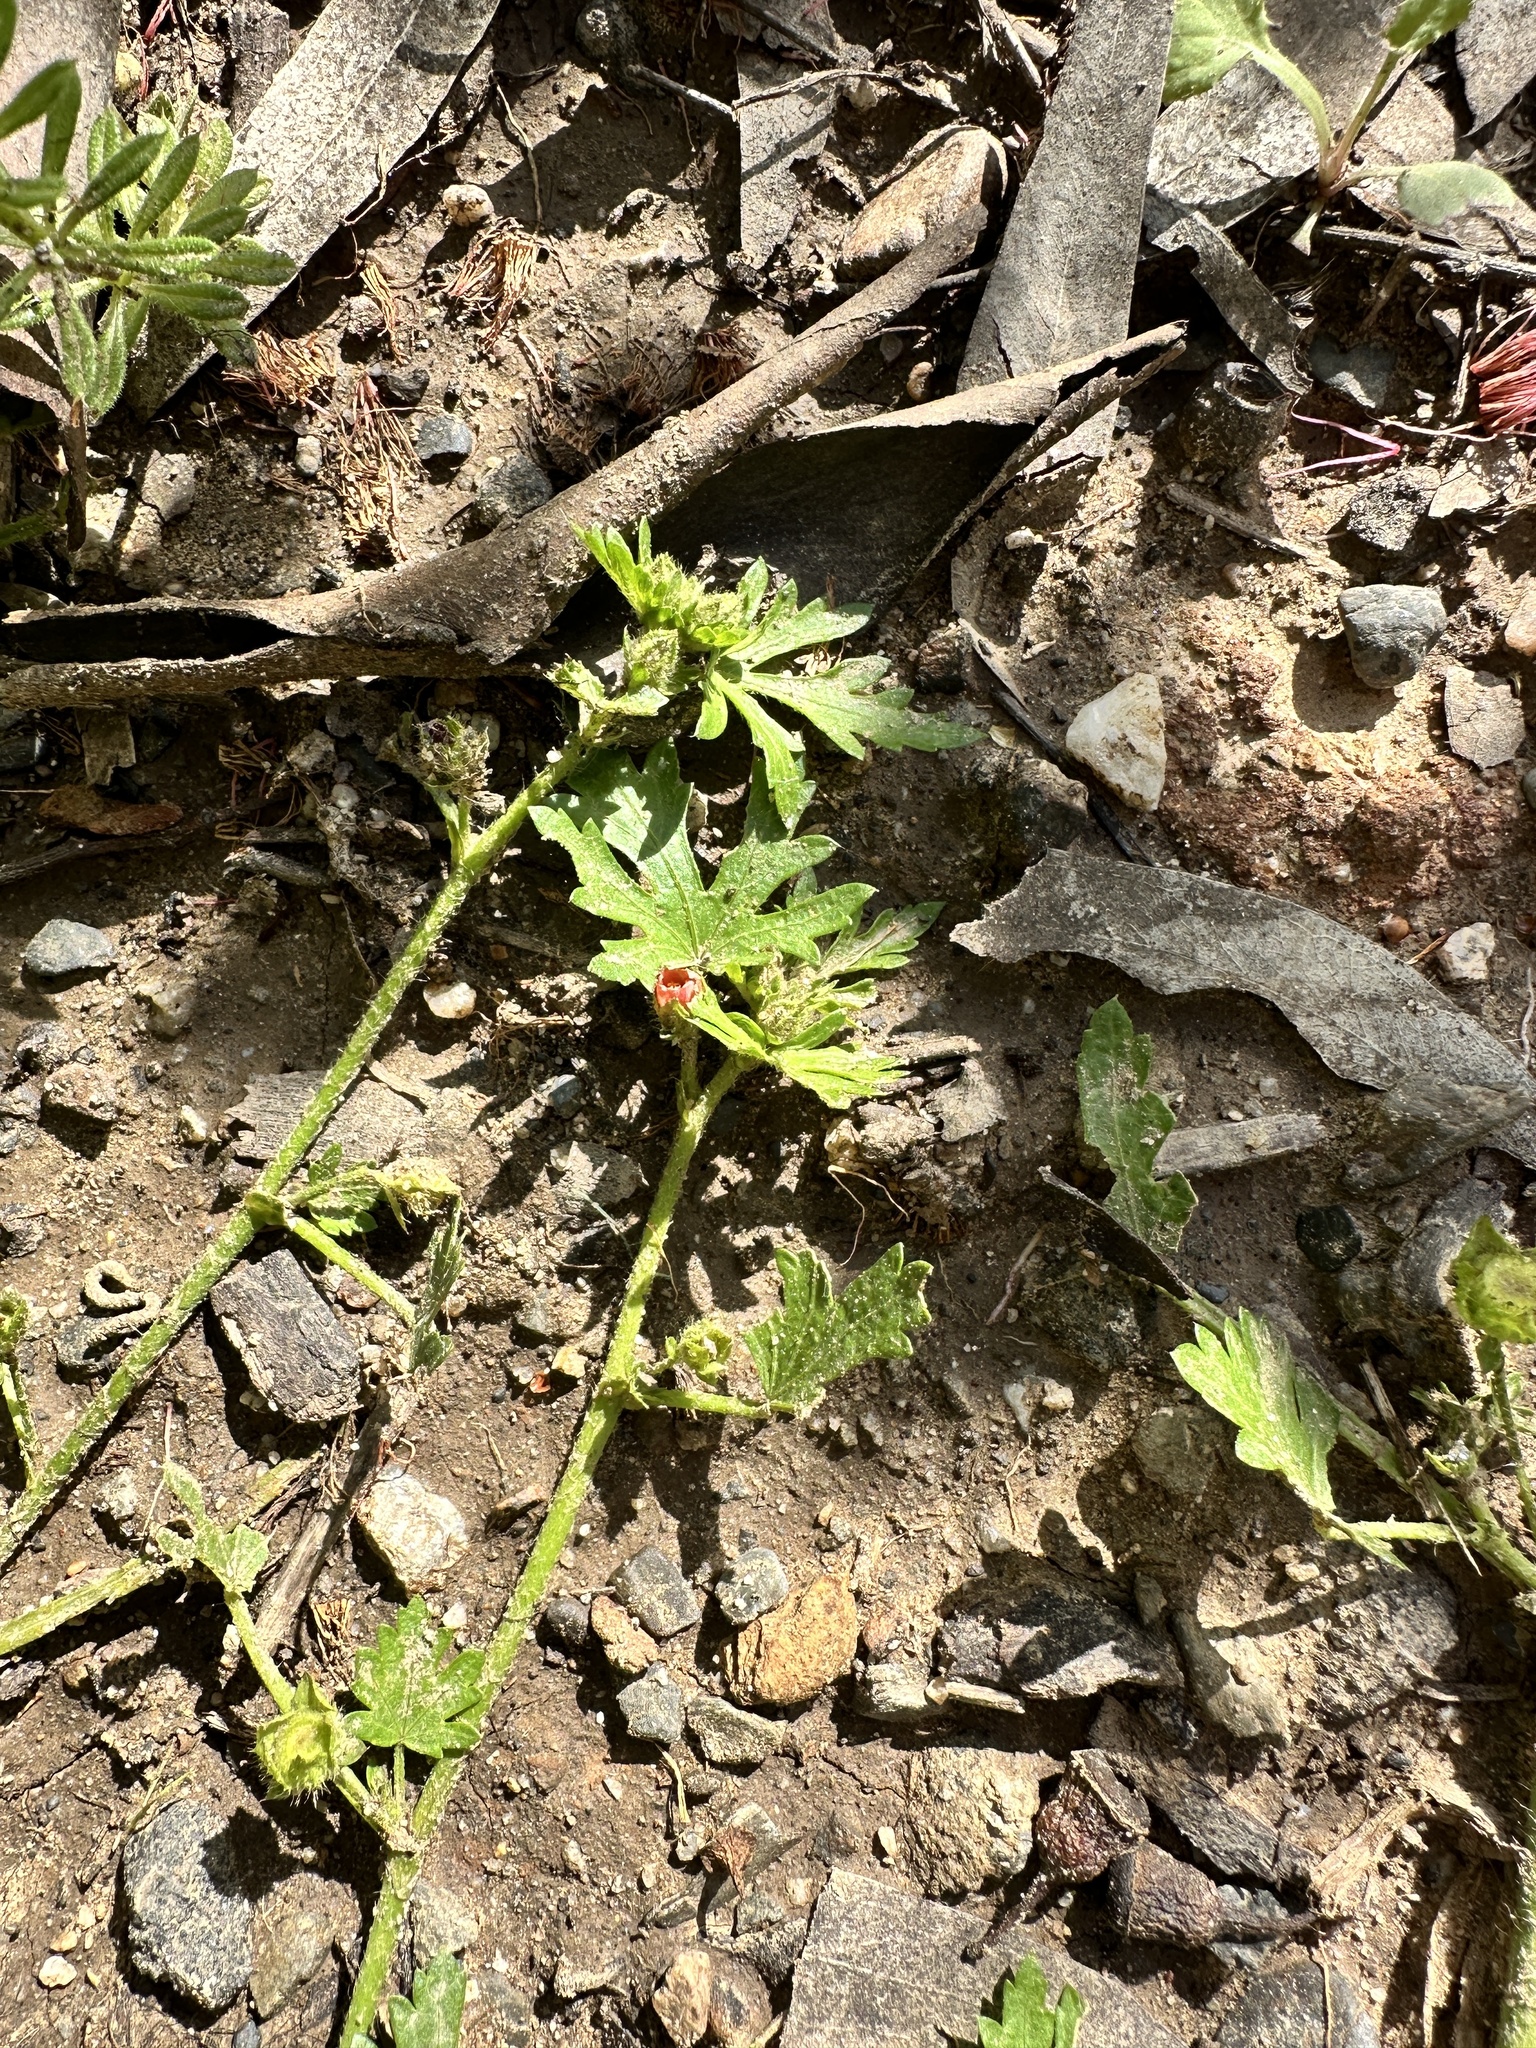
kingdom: Plantae
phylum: Tracheophyta
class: Magnoliopsida
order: Malvales
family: Malvaceae
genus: Modiola
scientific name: Modiola caroliniana
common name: Carolina bristlemallow
